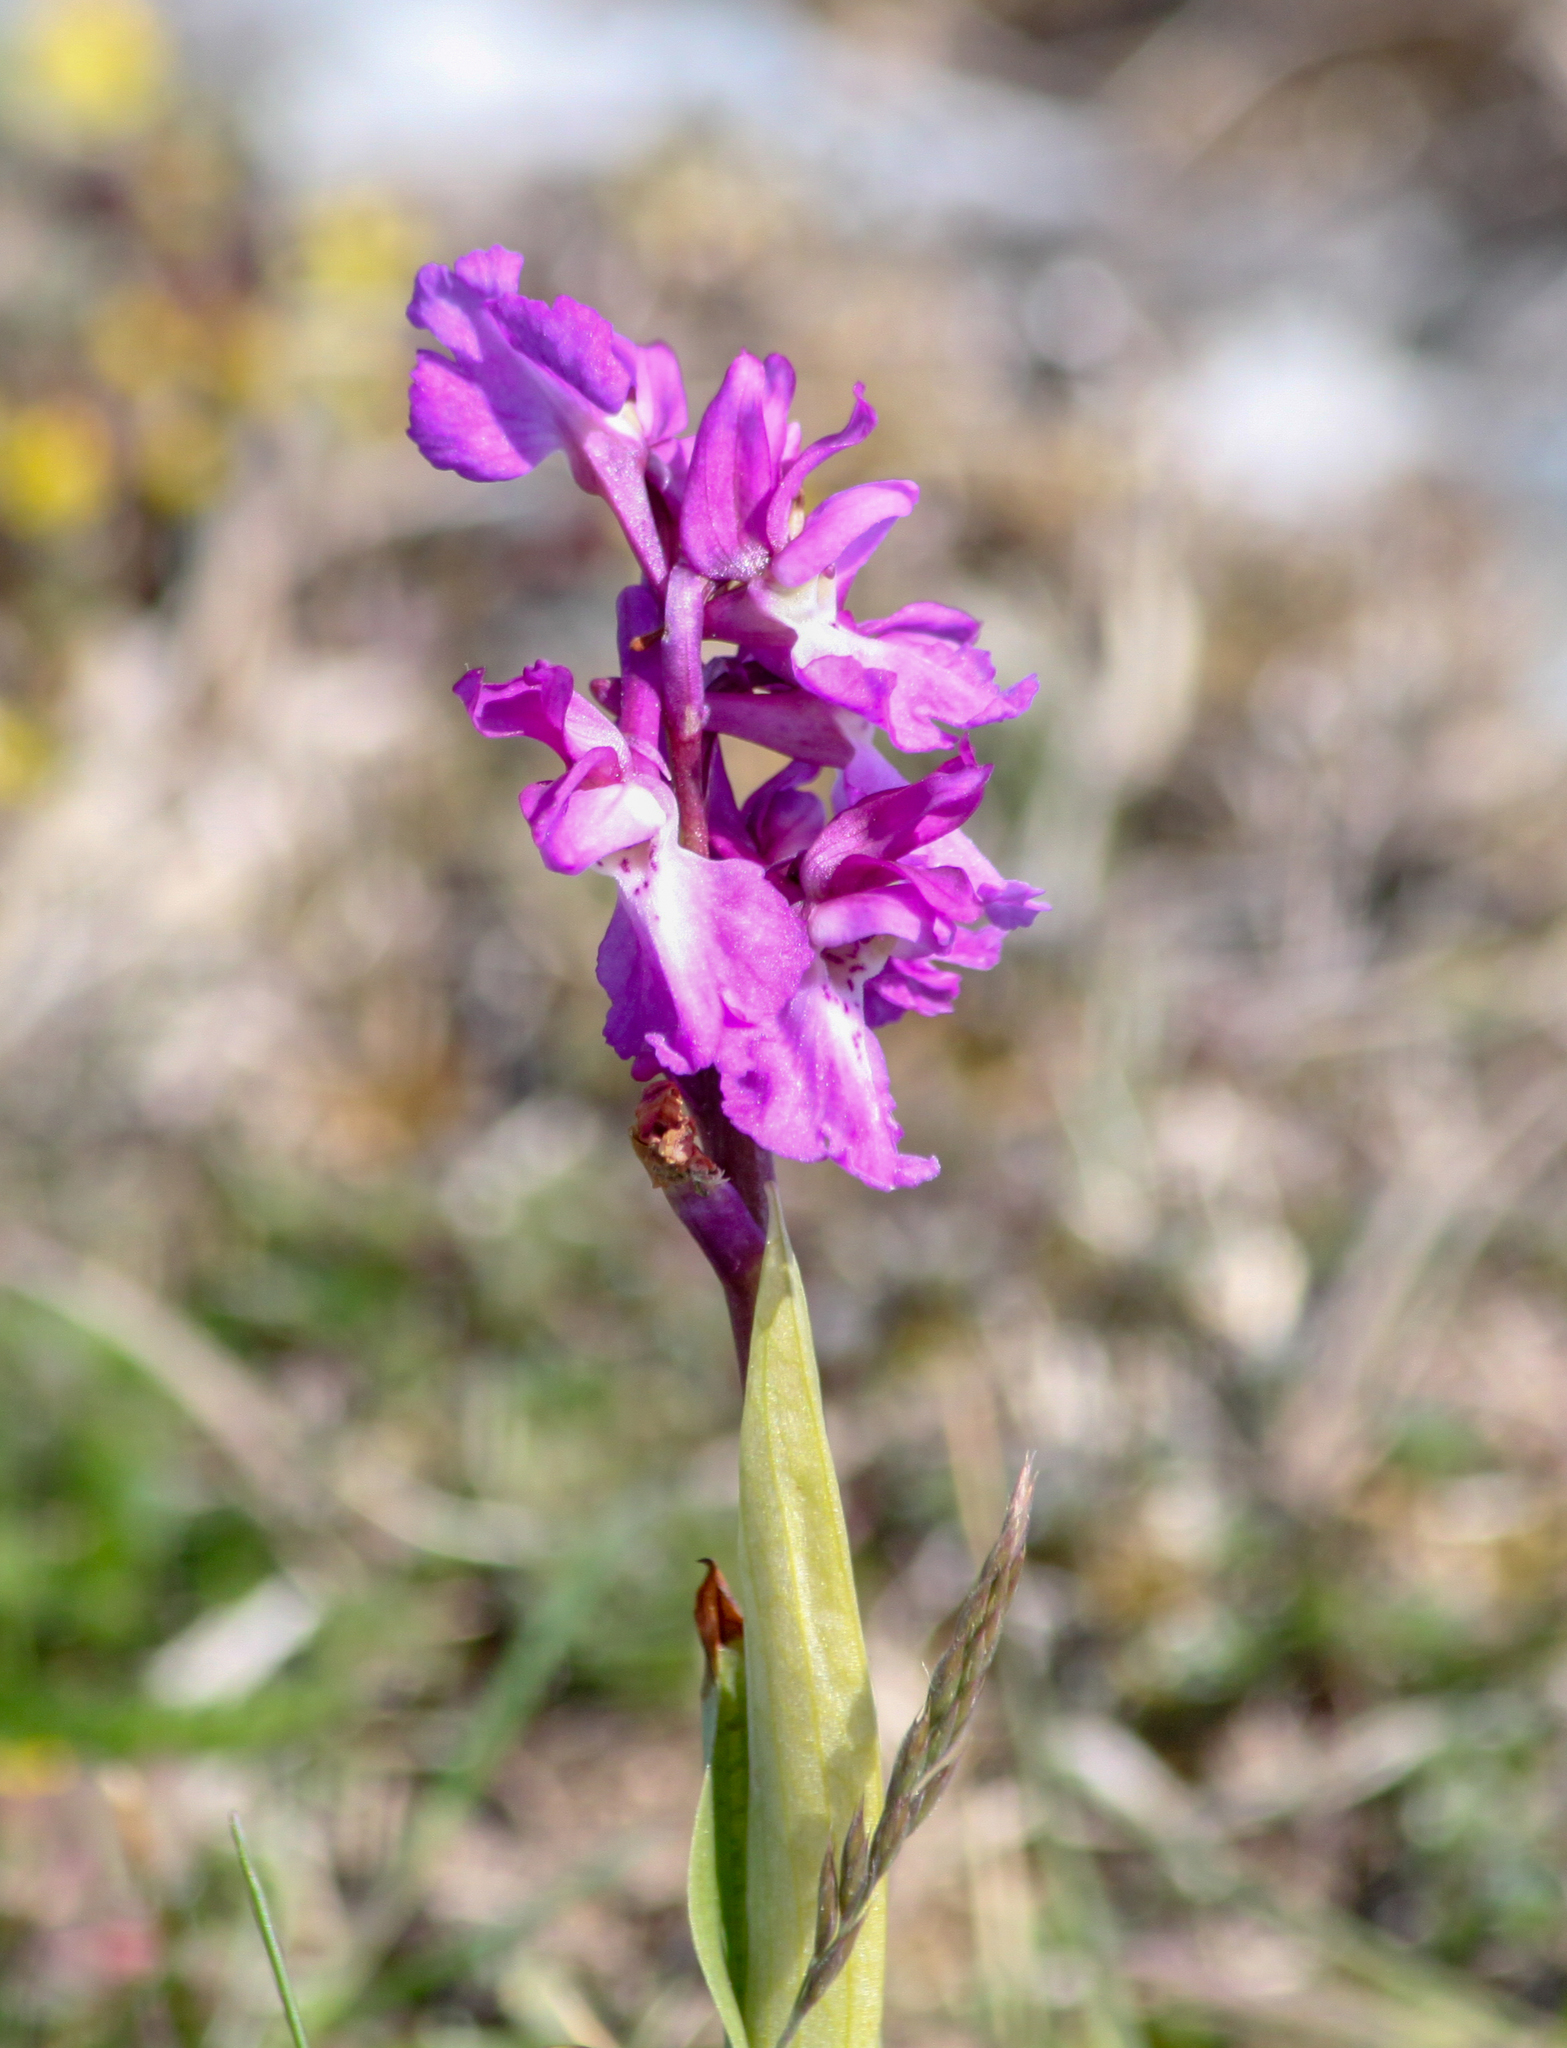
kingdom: Plantae
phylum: Tracheophyta
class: Liliopsida
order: Asparagales
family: Orchidaceae
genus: Orchis
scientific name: Orchis mascula
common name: Early-purple orchid
